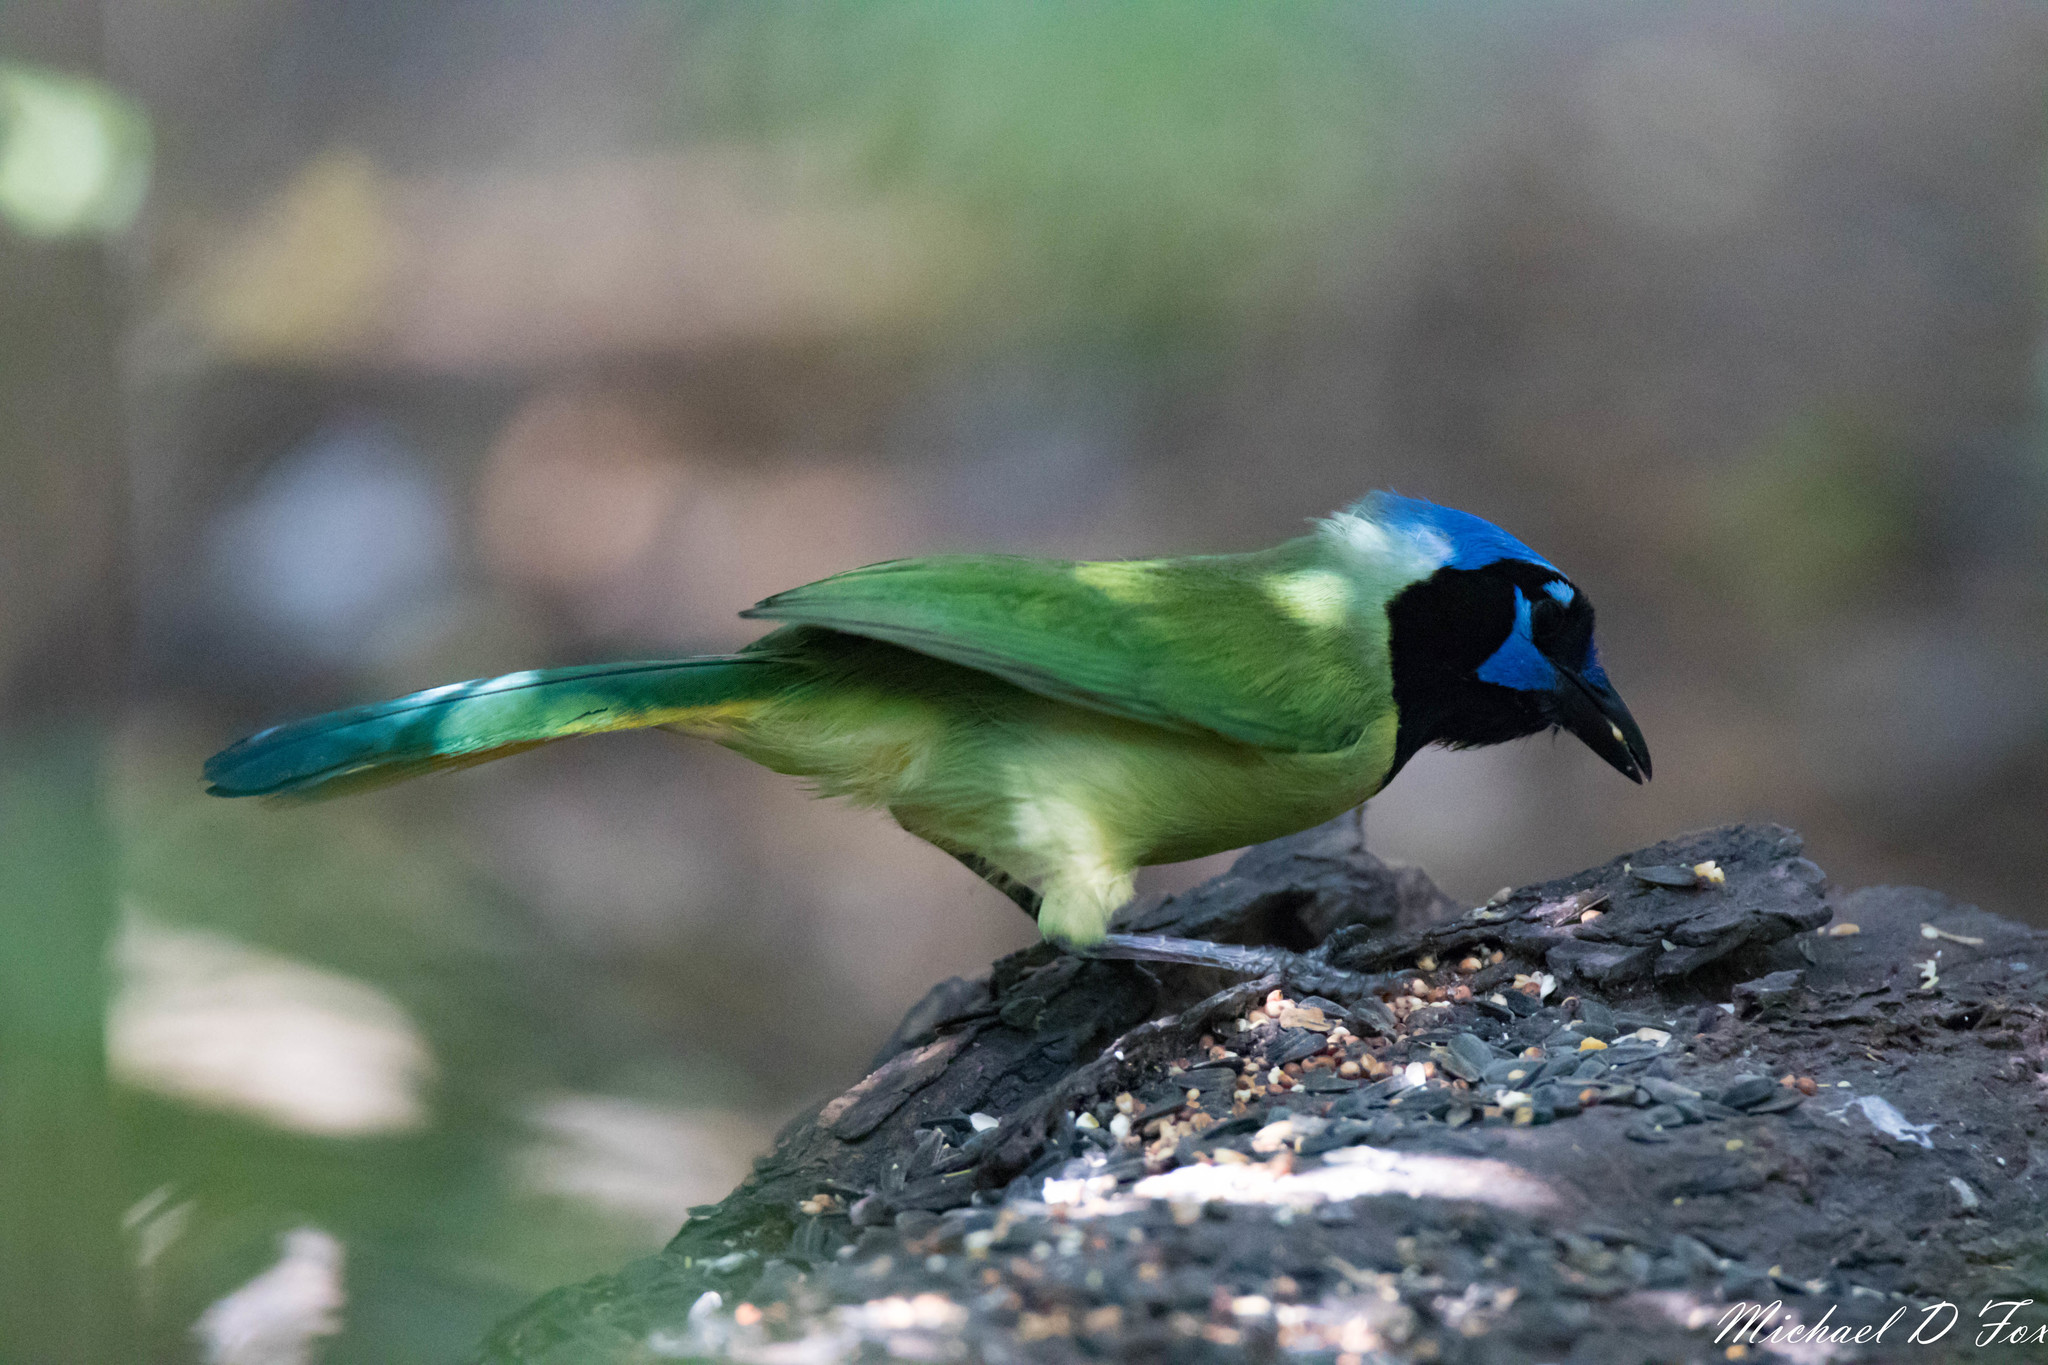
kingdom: Animalia
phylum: Chordata
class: Aves
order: Passeriformes
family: Corvidae
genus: Cyanocorax
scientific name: Cyanocorax yncas
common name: Green jay
